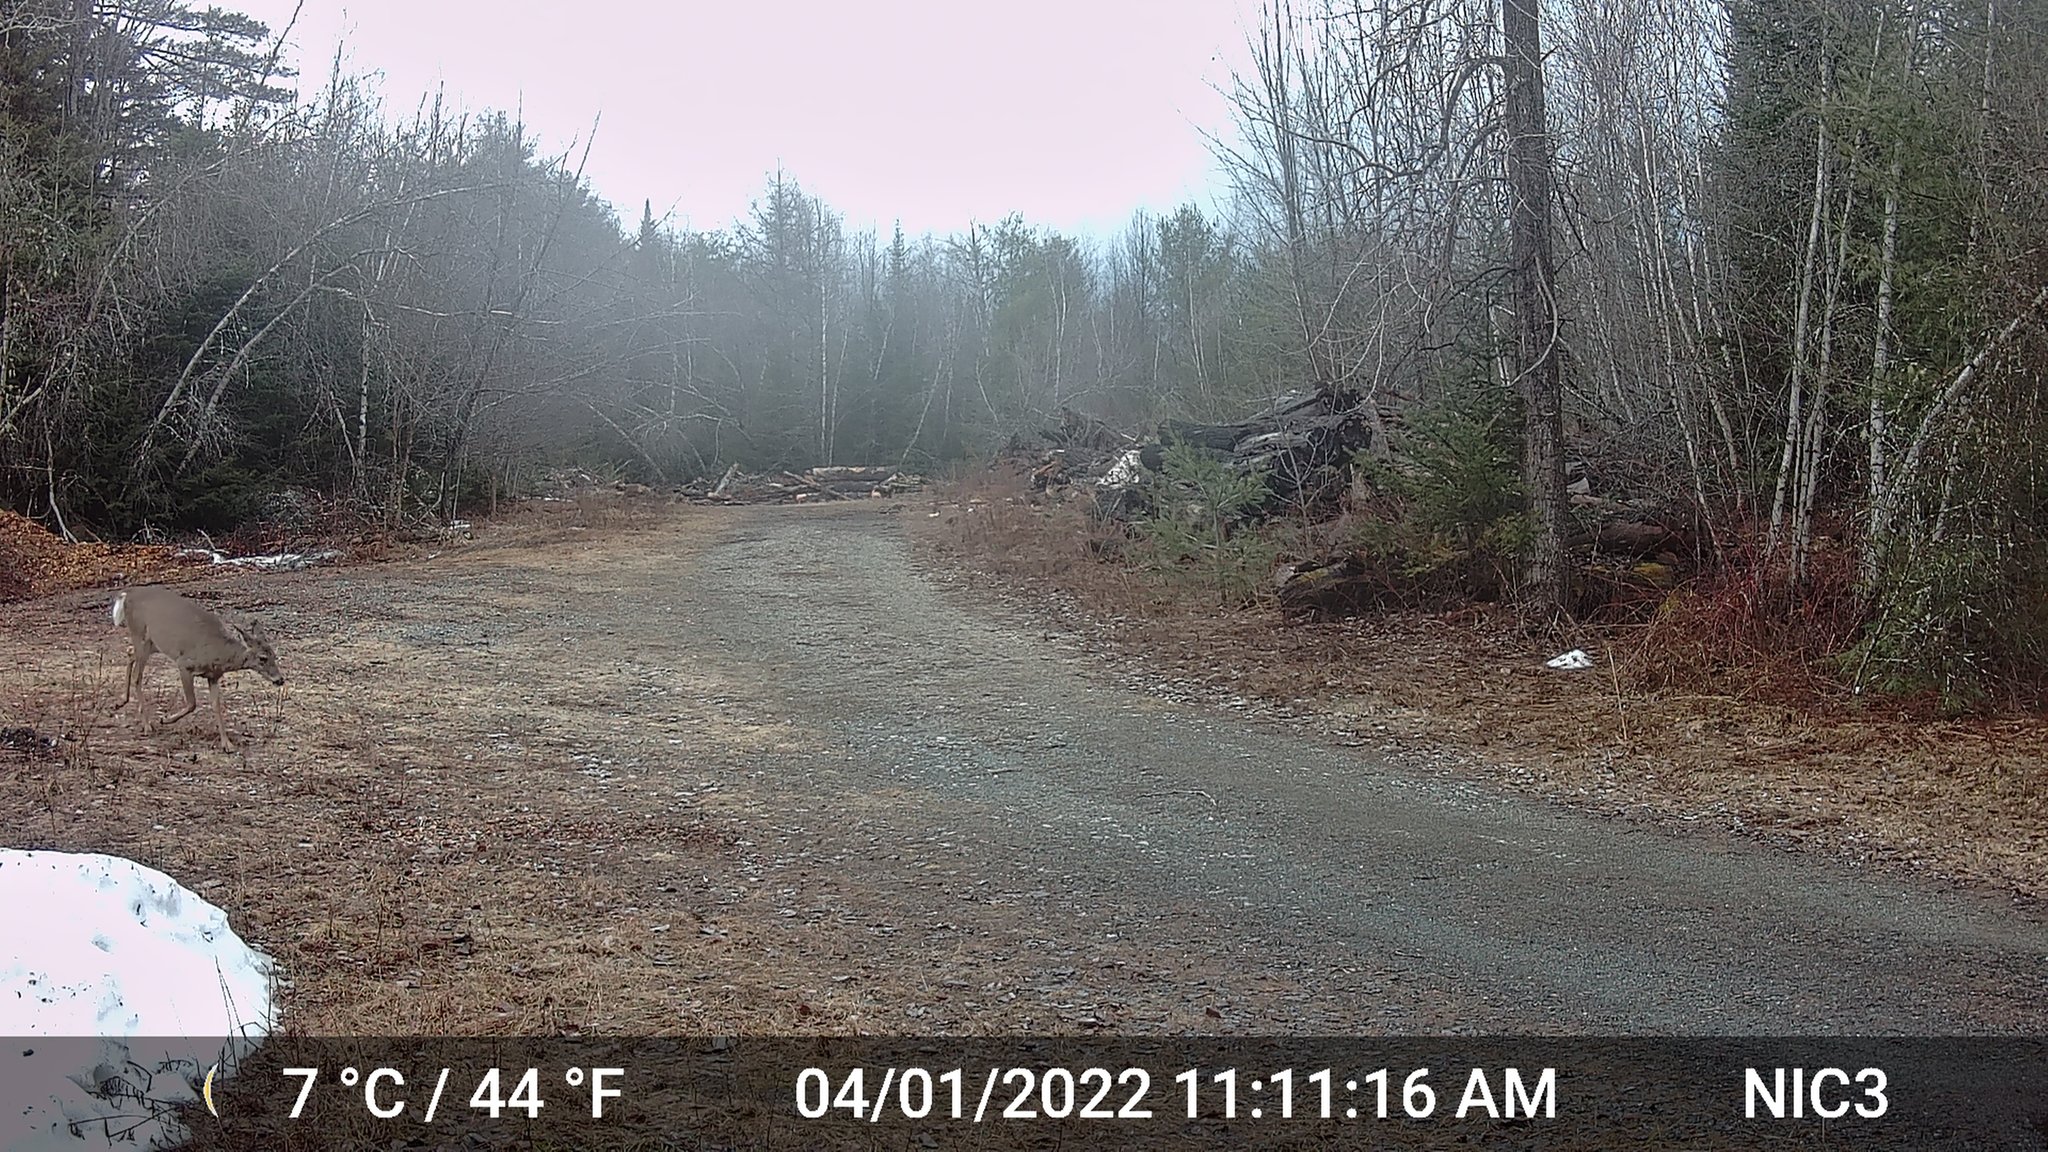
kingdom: Animalia
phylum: Chordata
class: Mammalia
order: Artiodactyla
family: Cervidae
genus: Odocoileus
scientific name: Odocoileus virginianus
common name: White-tailed deer
